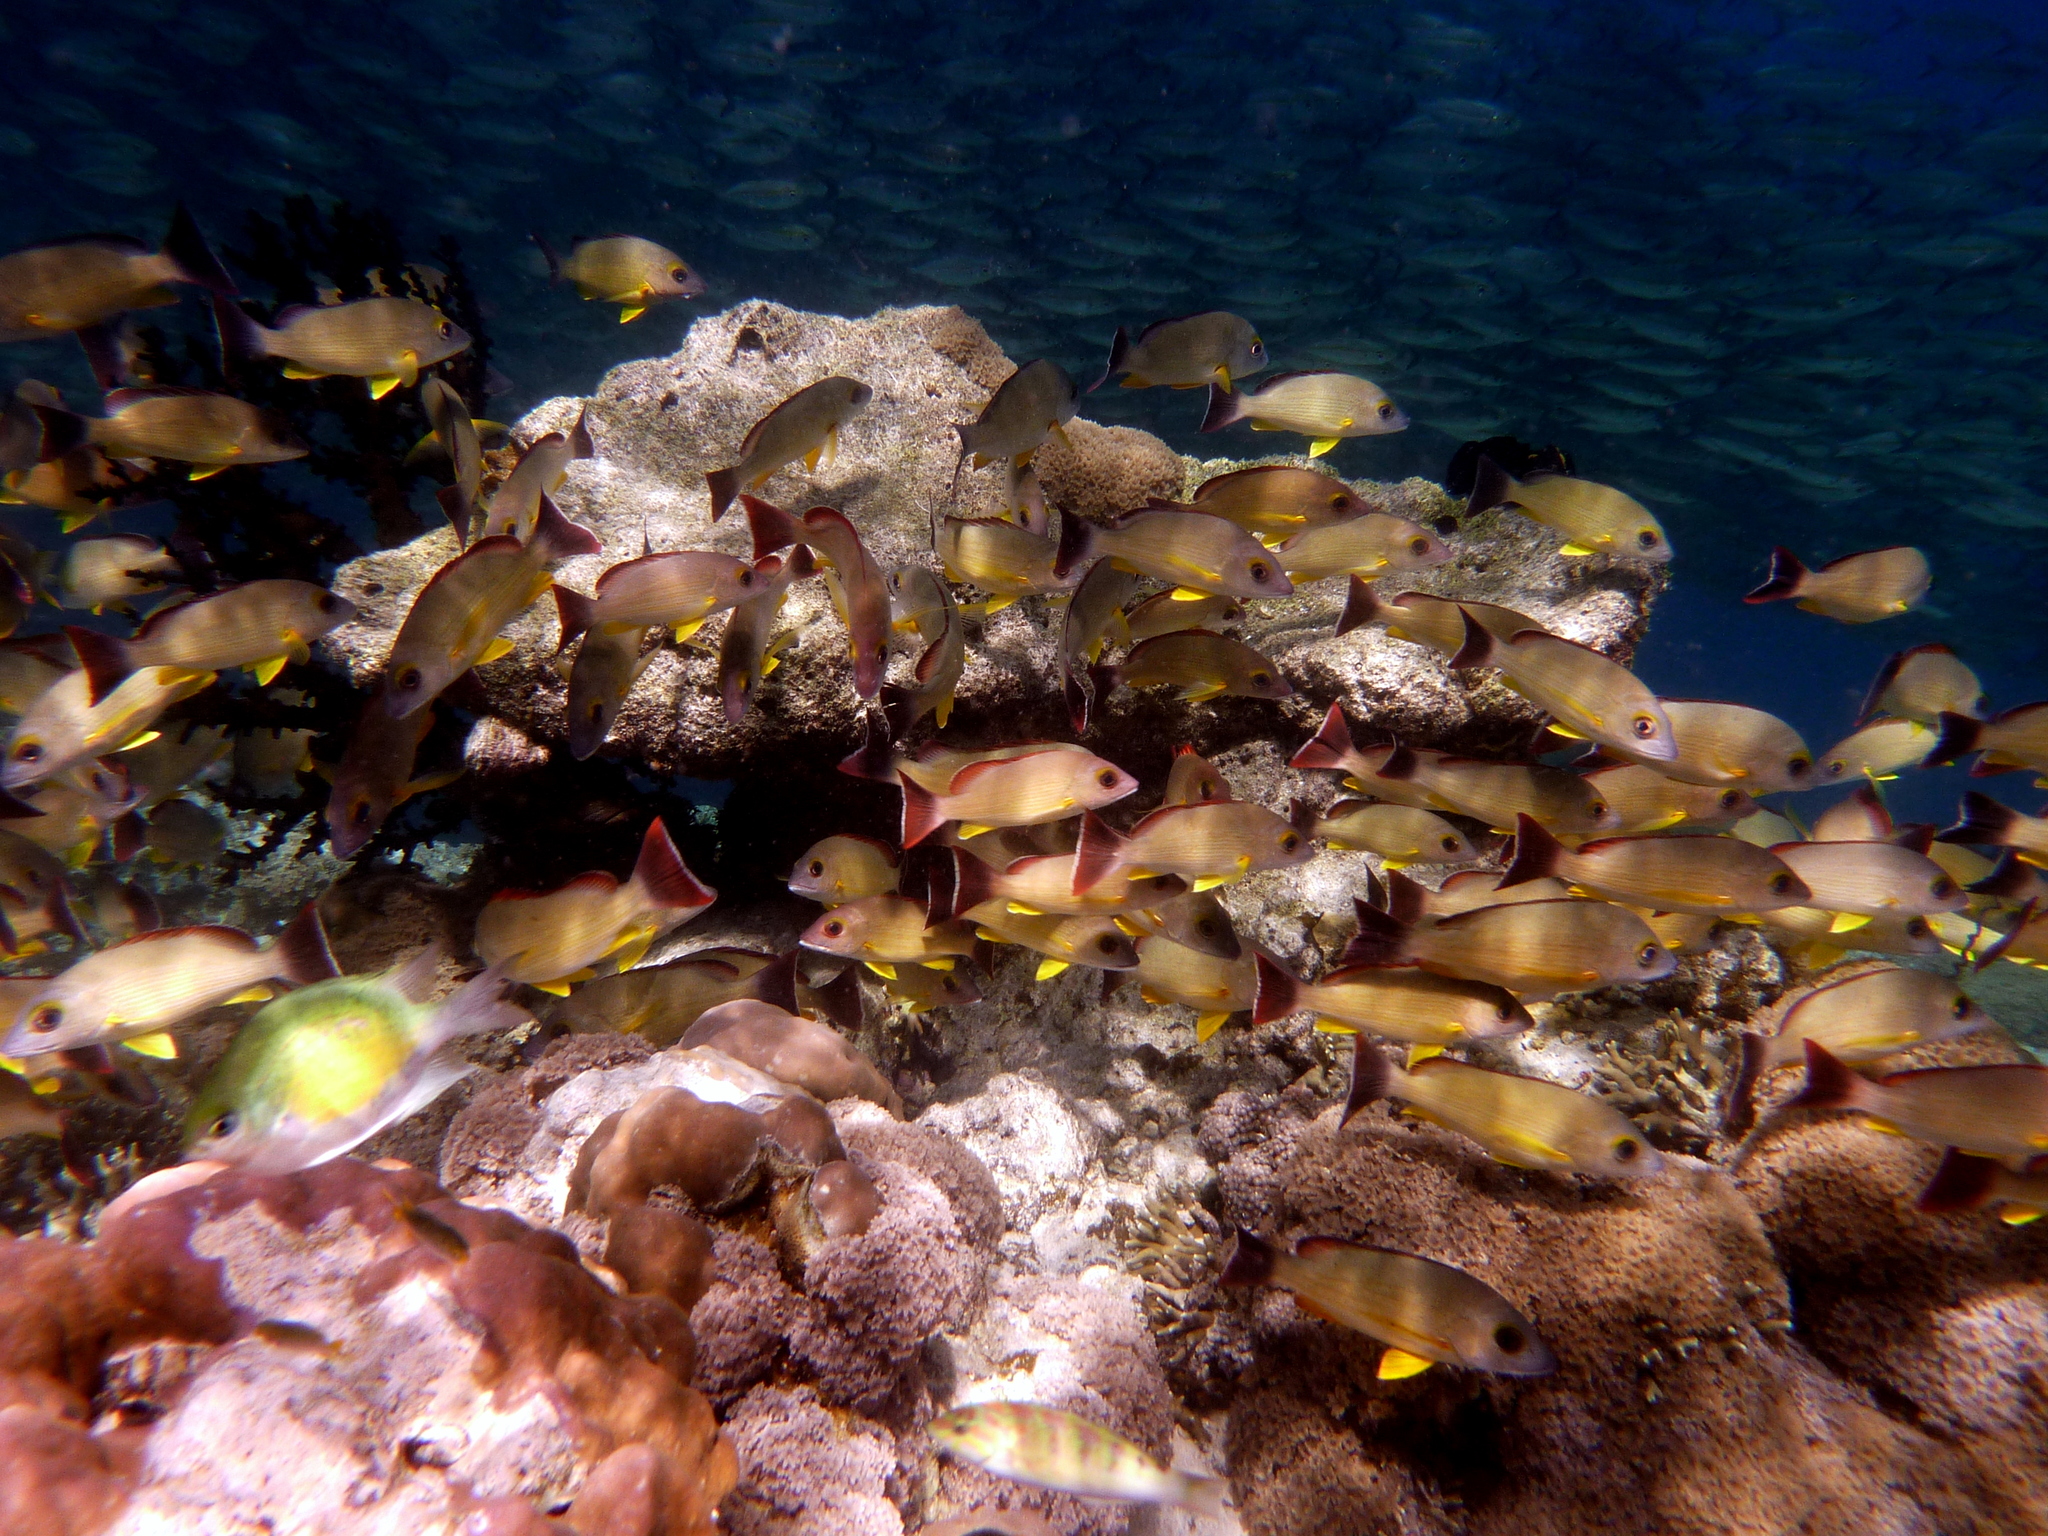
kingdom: Animalia
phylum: Chordata
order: Perciformes
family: Lutjanidae
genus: Lutjanus
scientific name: Lutjanus fulvus
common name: Blacktail snapper
